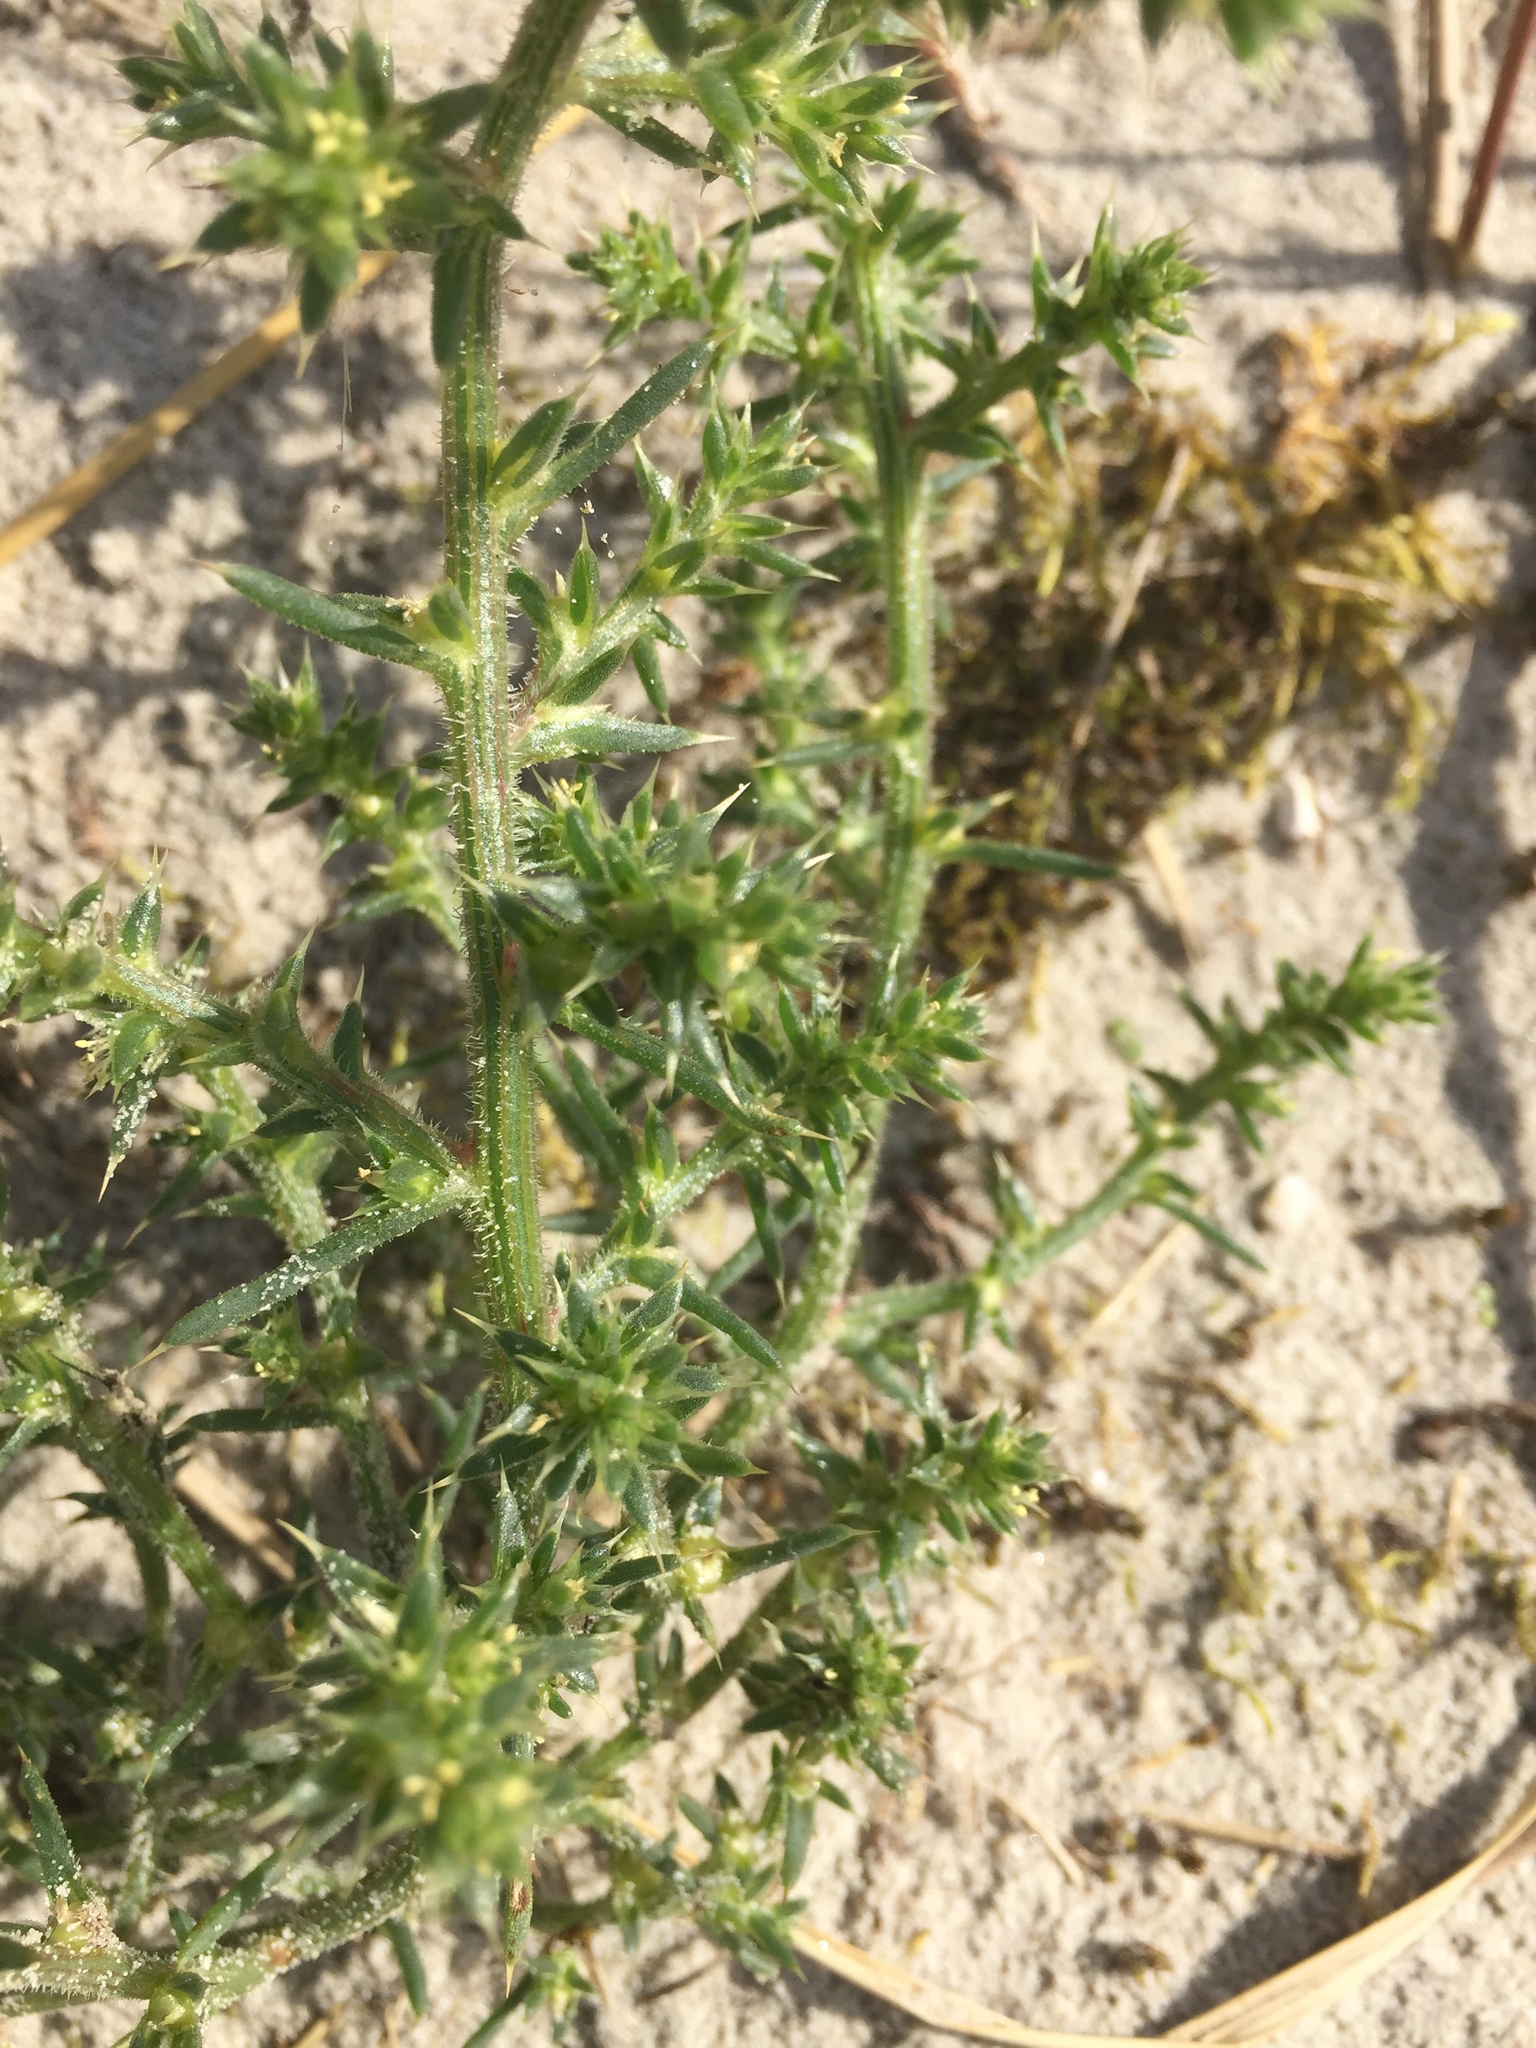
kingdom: Plantae
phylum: Tracheophyta
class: Magnoliopsida
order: Caryophyllales
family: Amaranthaceae
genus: Salsola
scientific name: Salsola kali
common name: Saltwort
